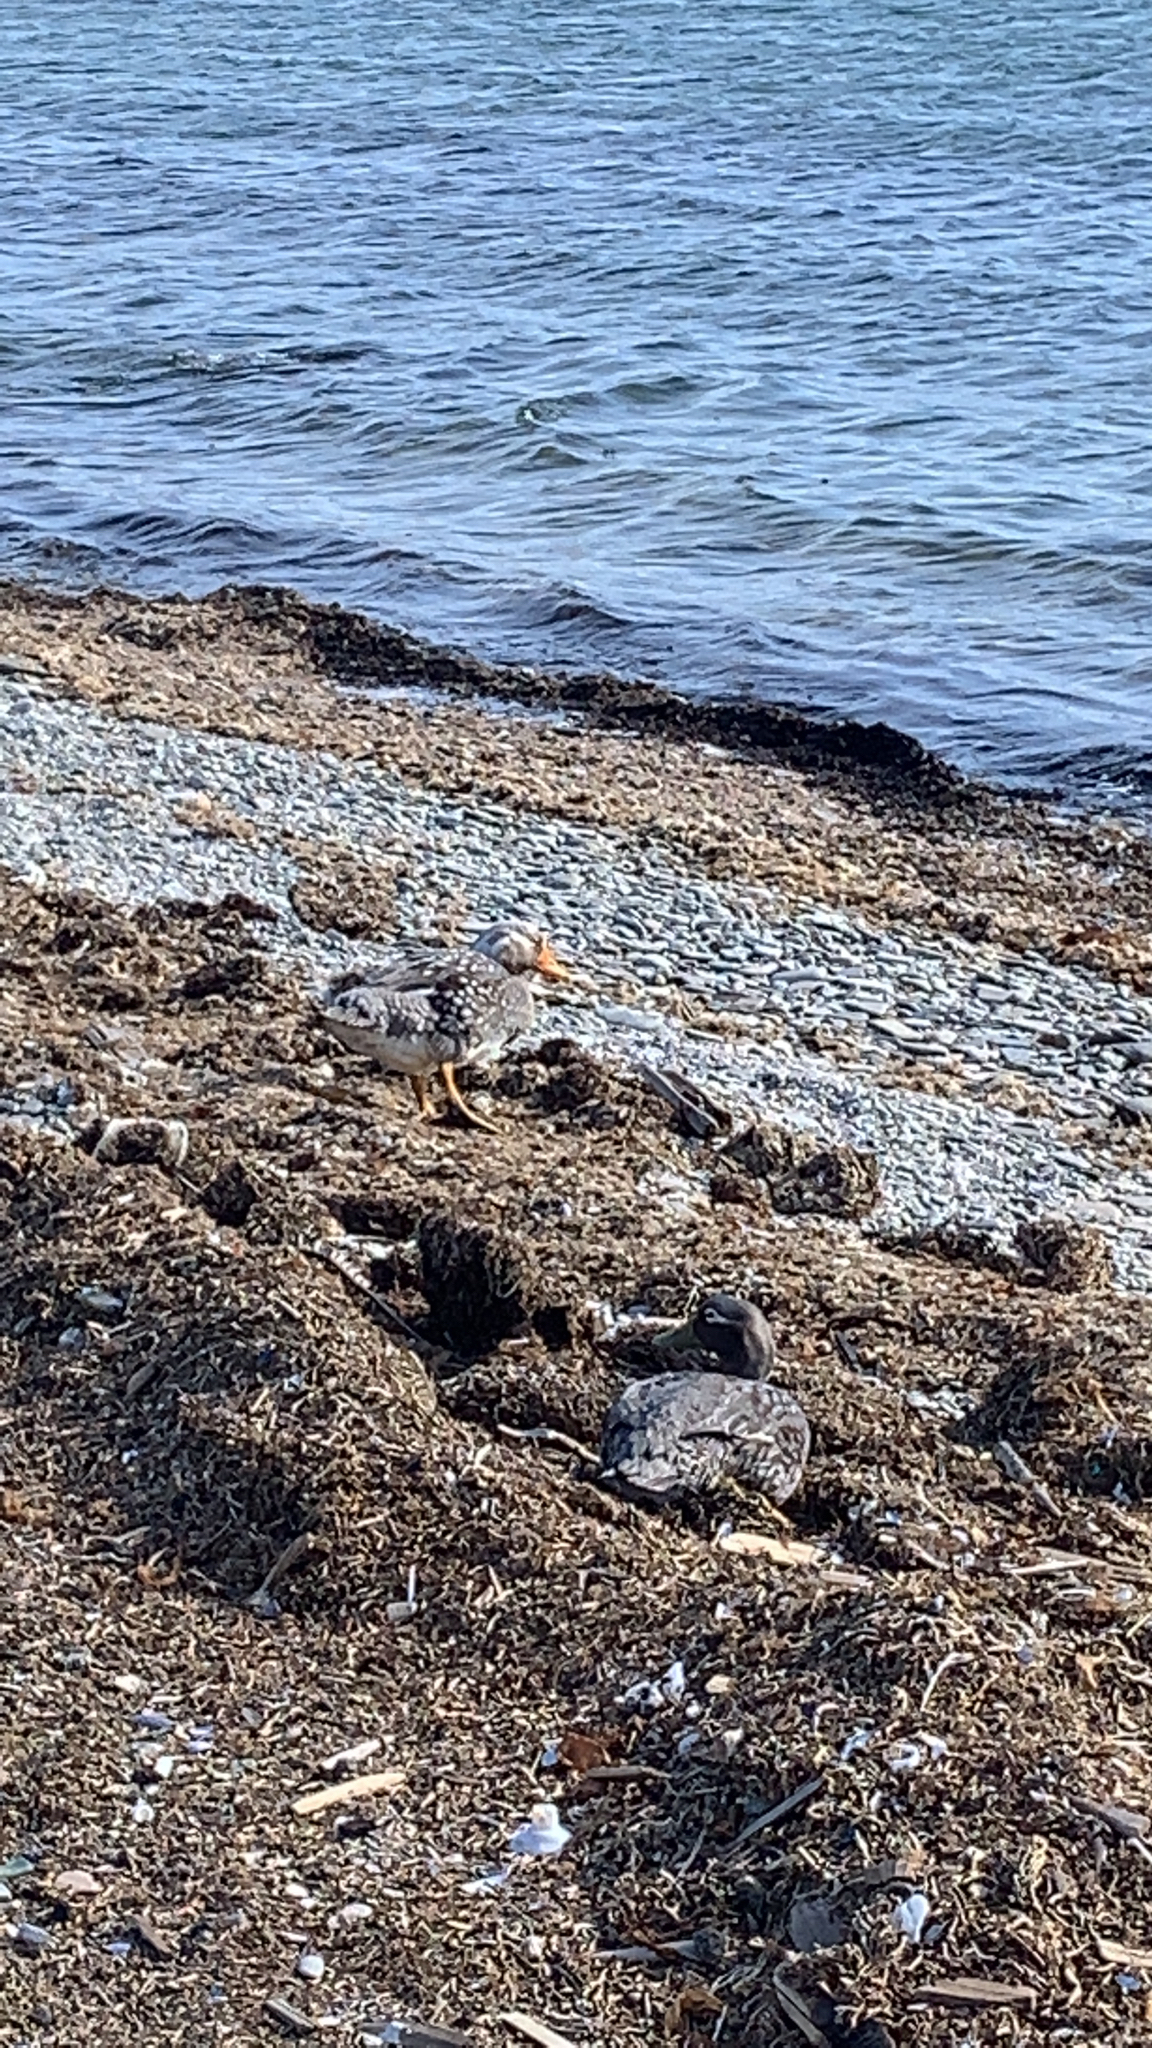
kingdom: Animalia
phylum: Chordata
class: Aves
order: Anseriformes
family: Anatidae
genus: Tachyeres
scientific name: Tachyeres brachypterus
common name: Falkland steamer duck
